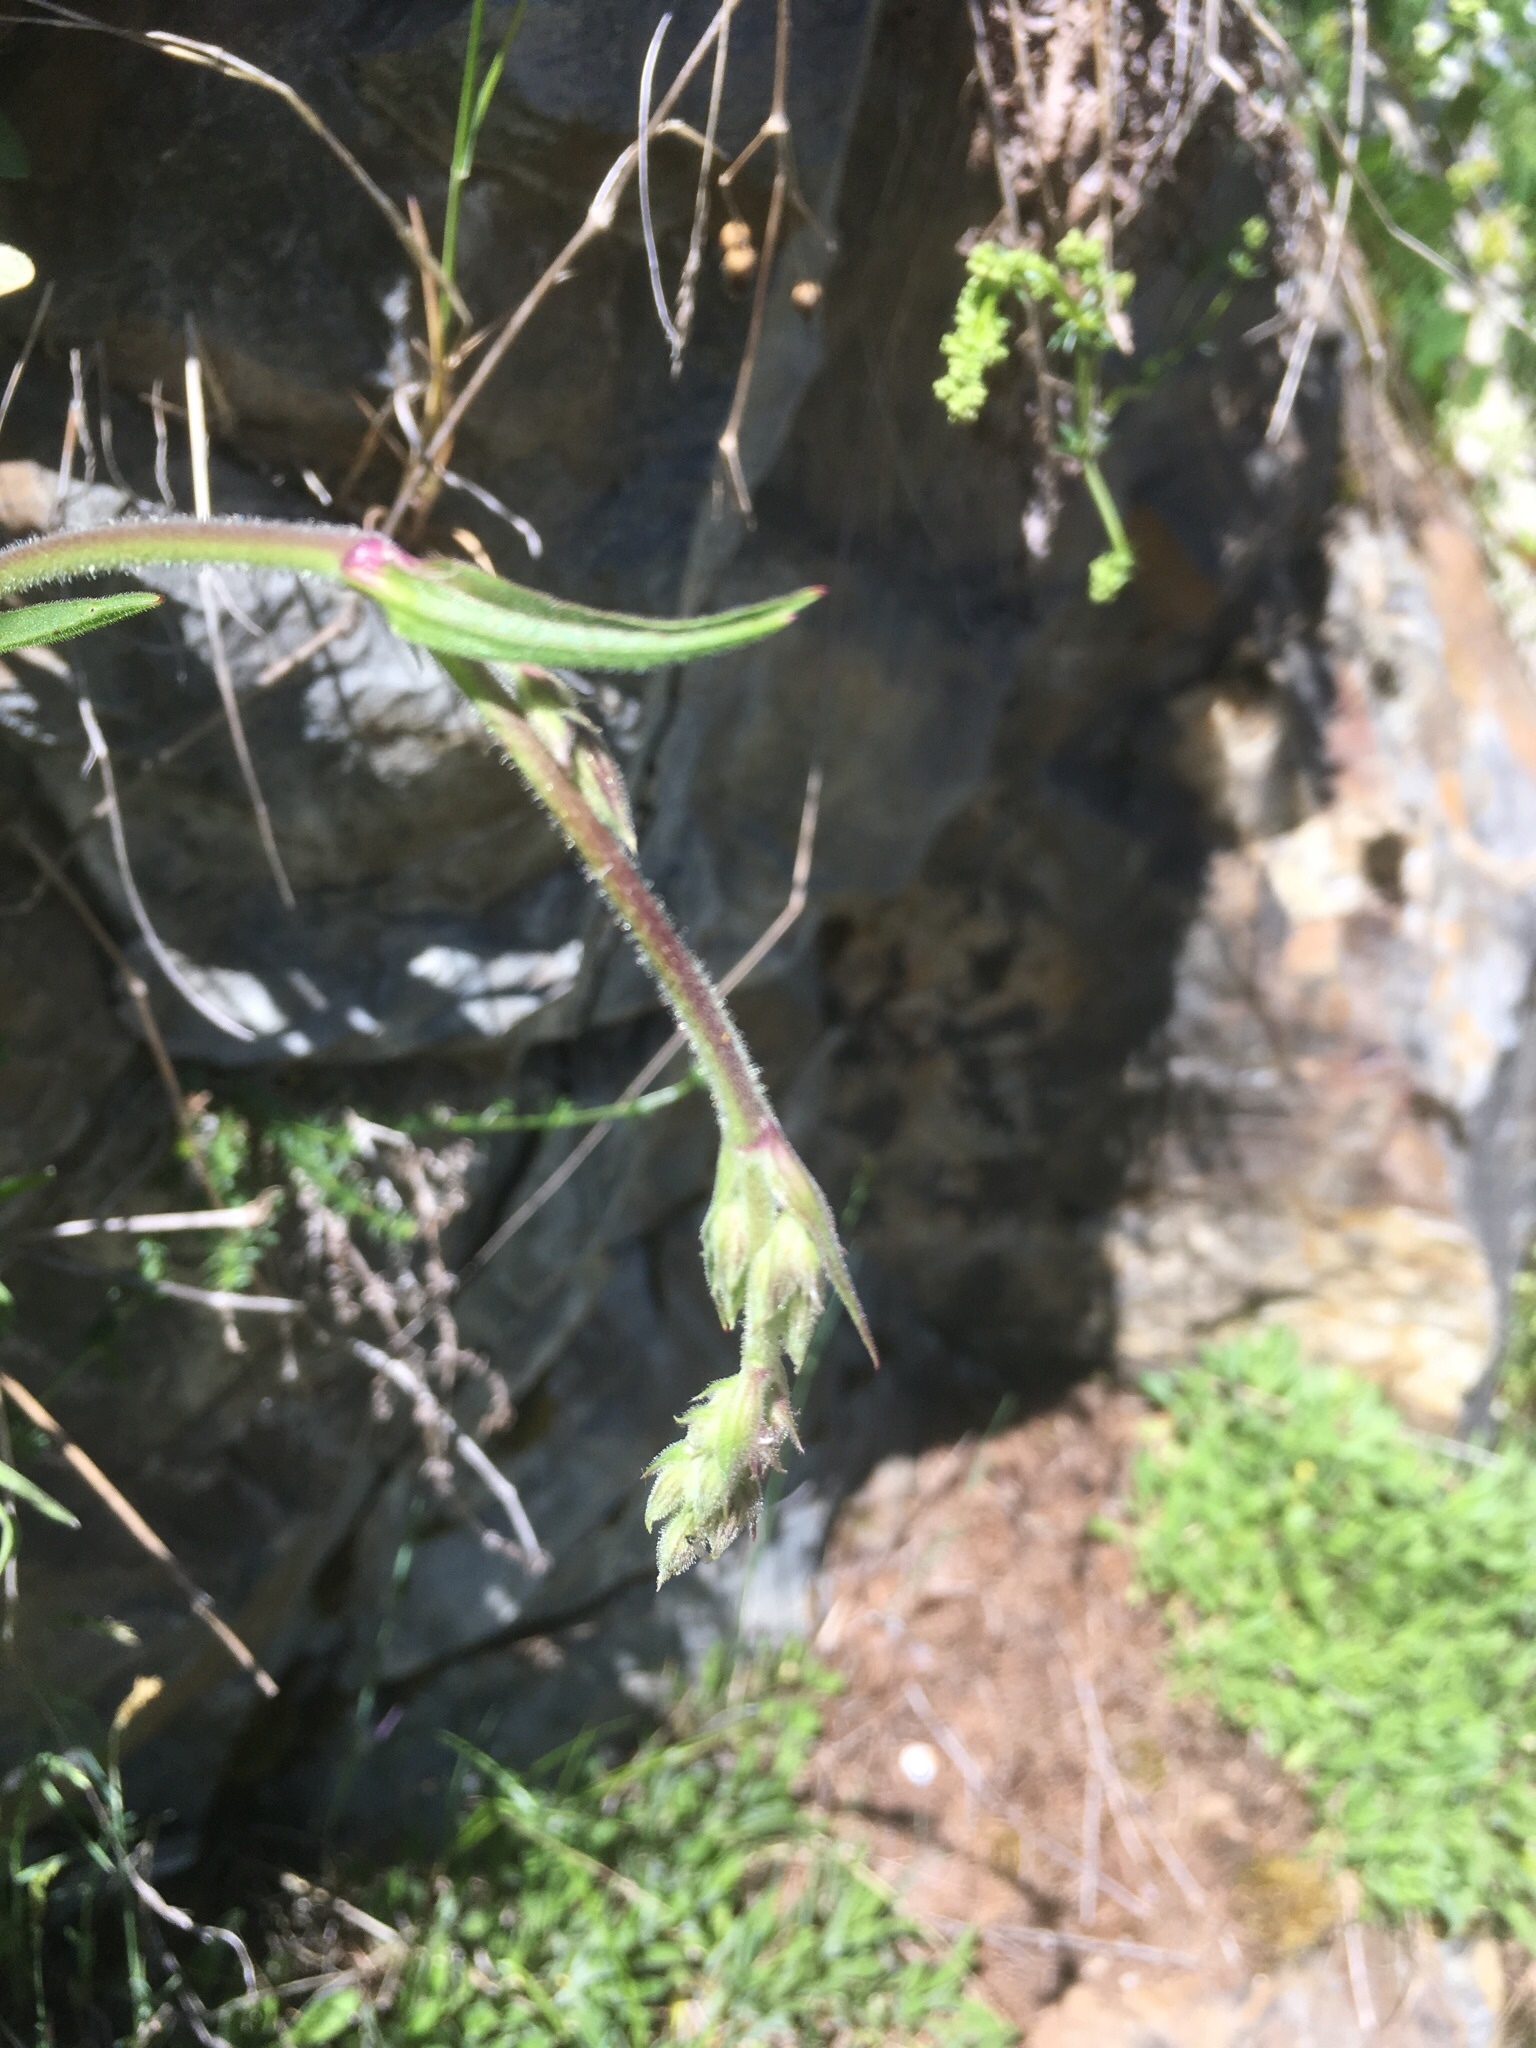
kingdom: Plantae
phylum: Tracheophyta
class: Magnoliopsida
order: Caryophyllales
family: Caryophyllaceae
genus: Silene
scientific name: Silene nutans
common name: Nottingham catchfly
